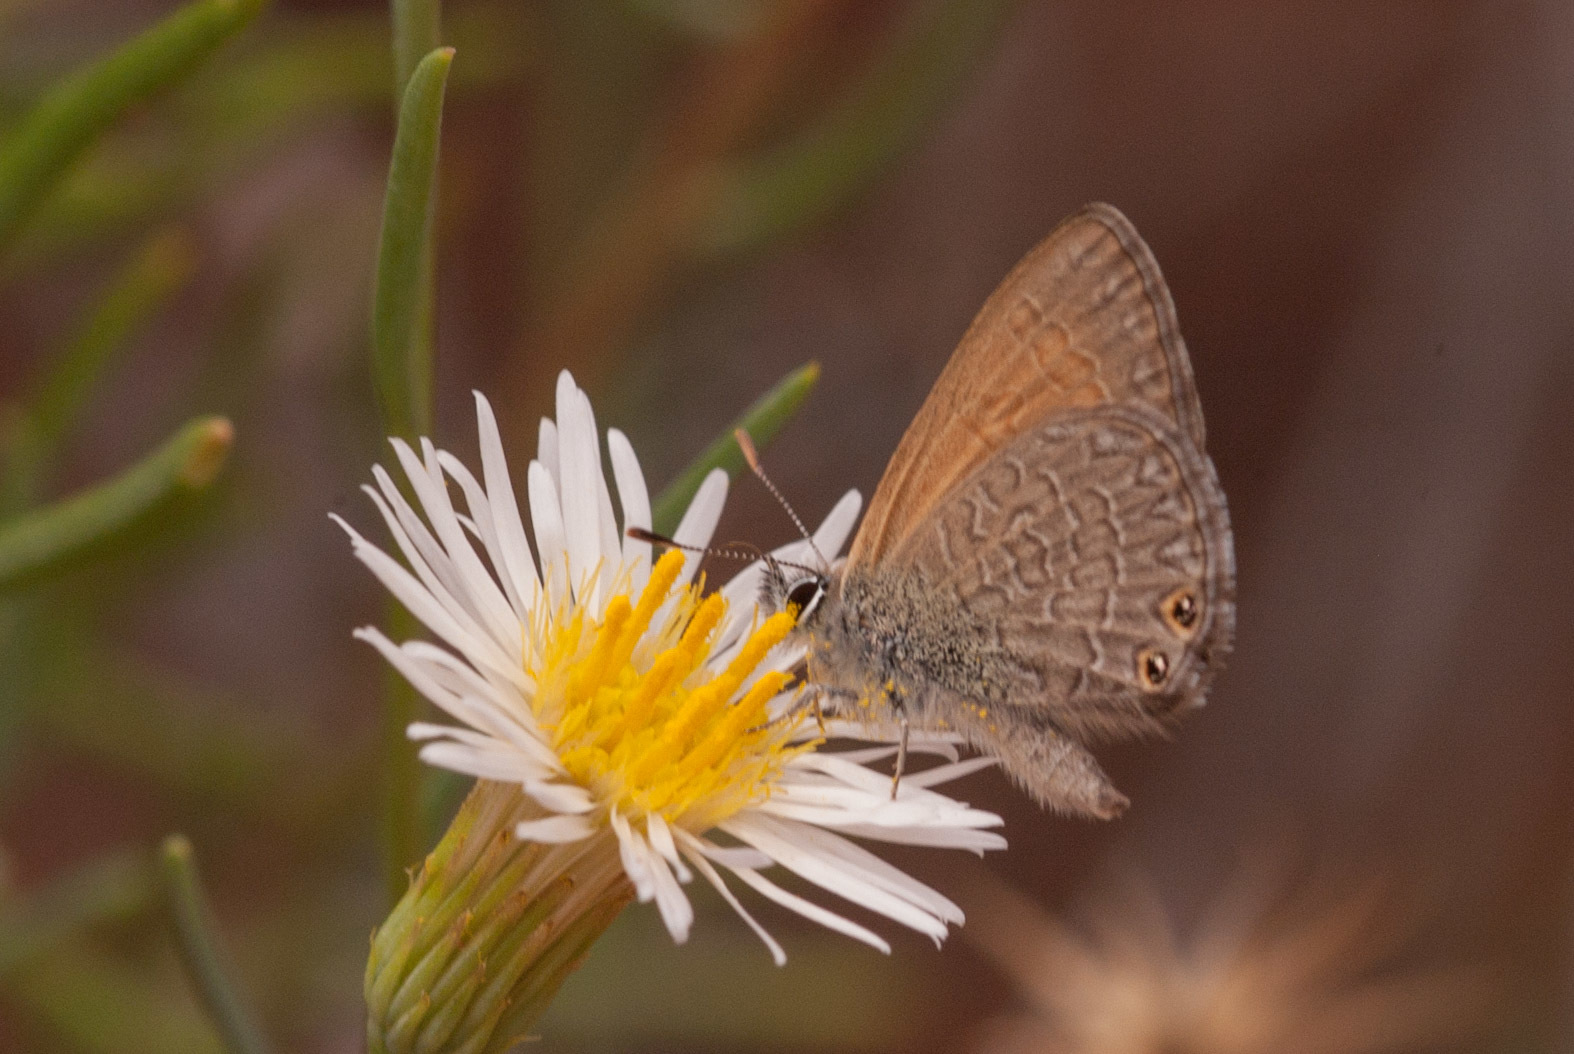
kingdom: Animalia
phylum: Arthropoda
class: Insecta
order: Lepidoptera
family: Lycaenidae
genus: Nacaduba
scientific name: Nacaduba biocellata
